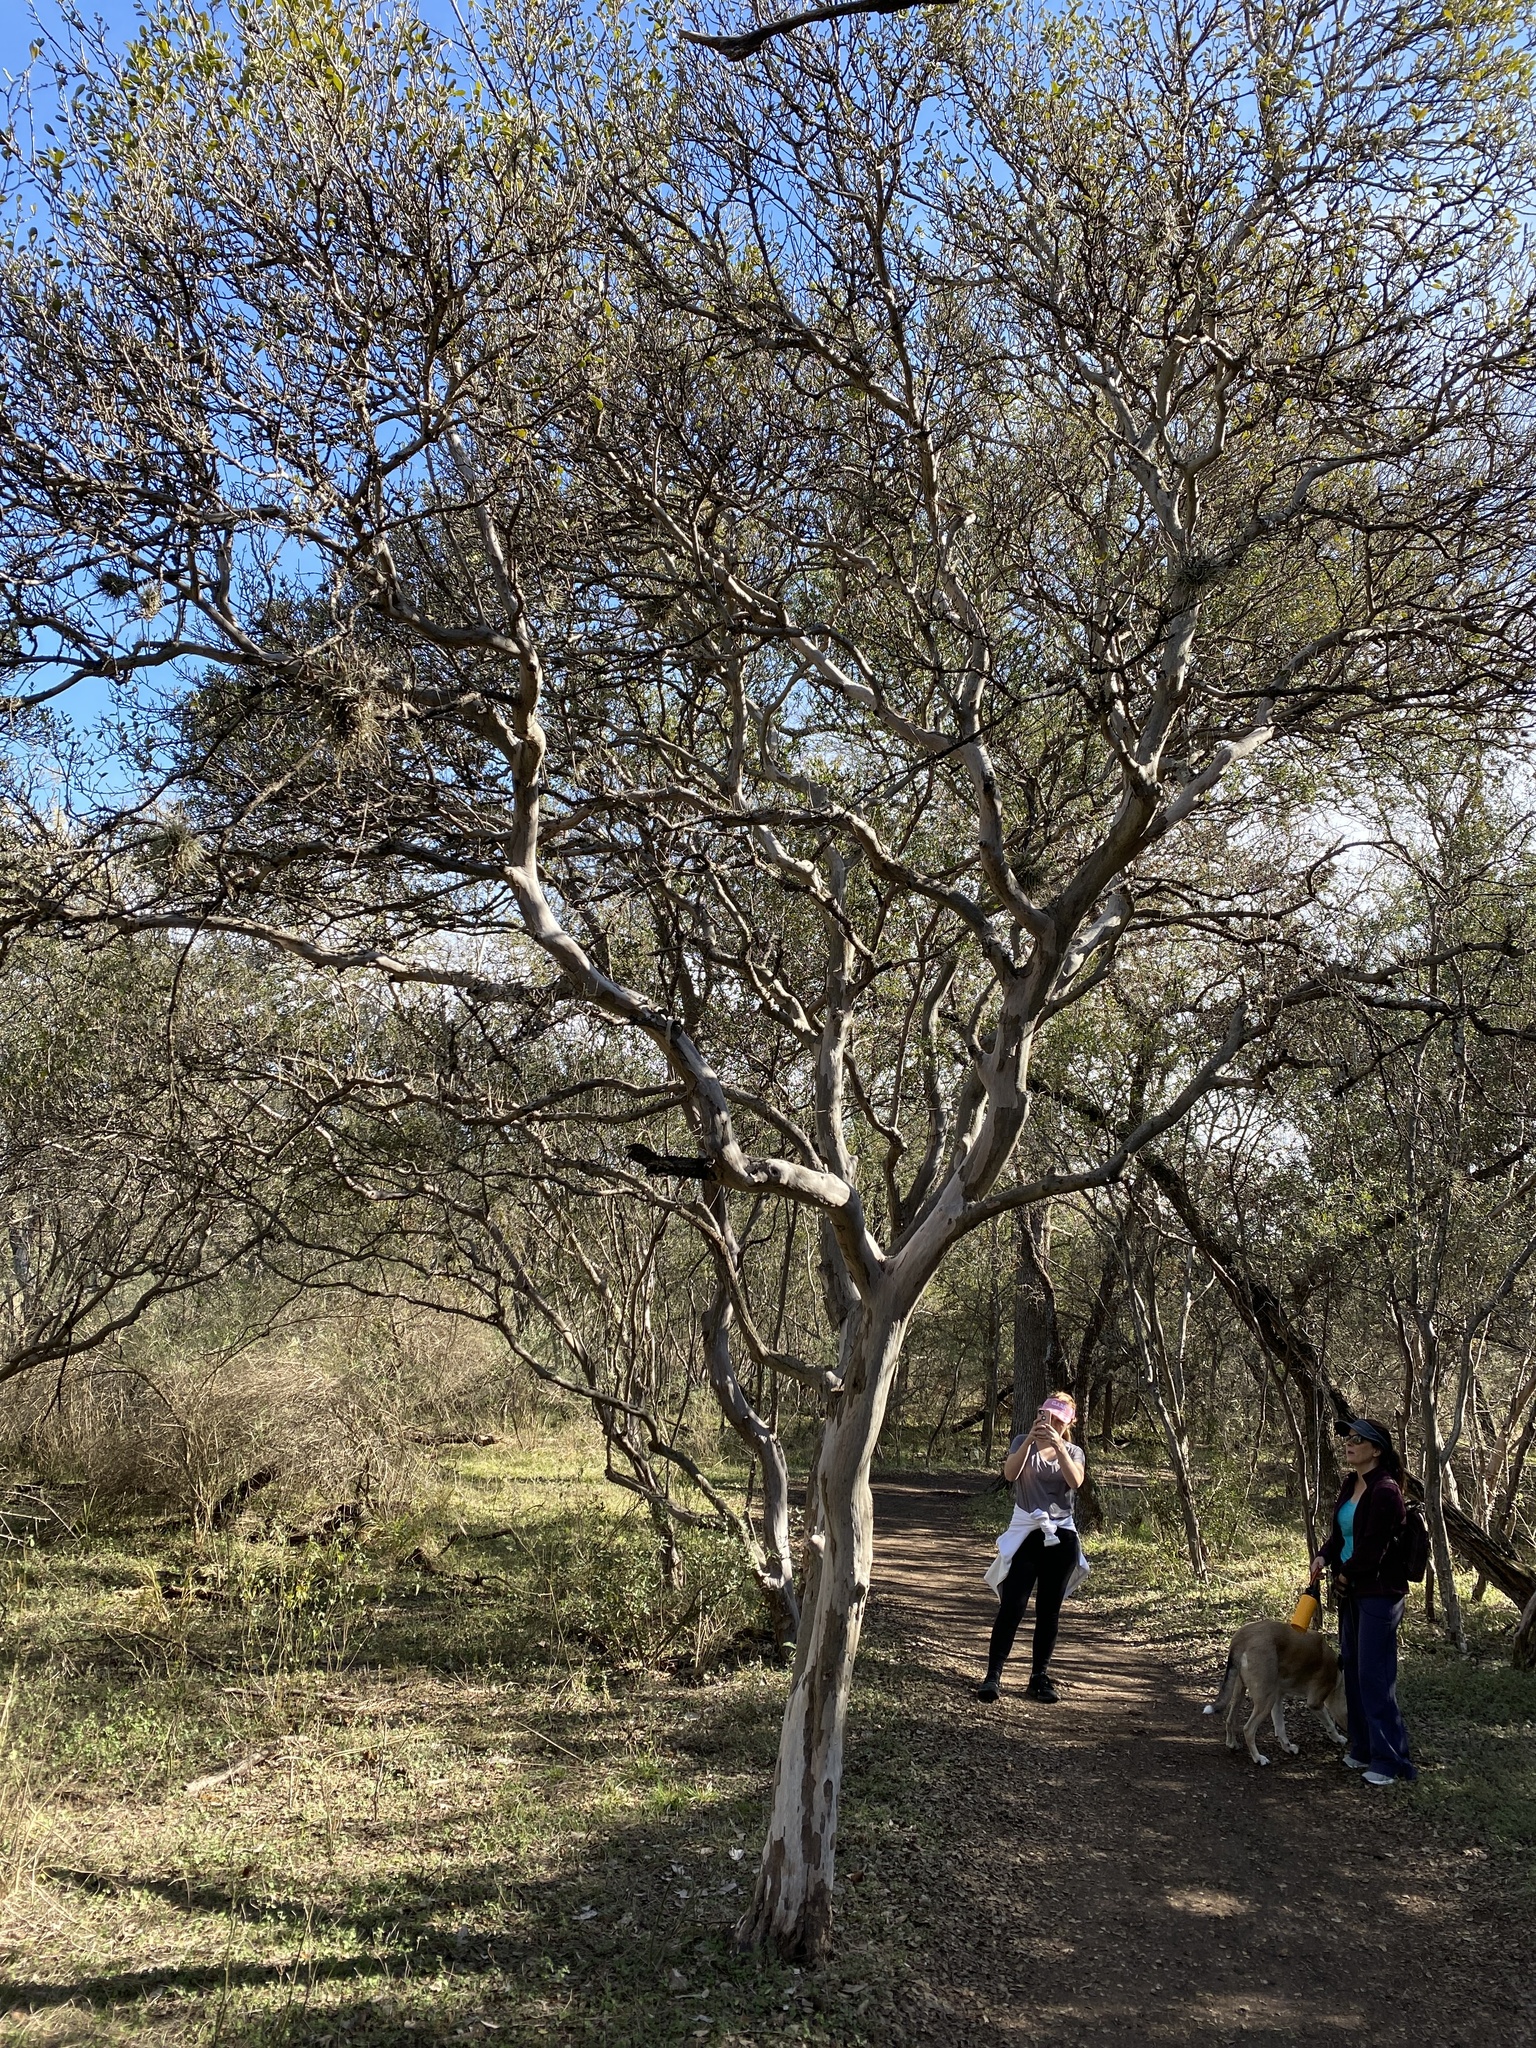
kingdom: Plantae
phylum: Tracheophyta
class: Magnoliopsida
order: Ericales
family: Ebenaceae
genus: Diospyros
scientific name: Diospyros texana
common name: Texas persimmon
